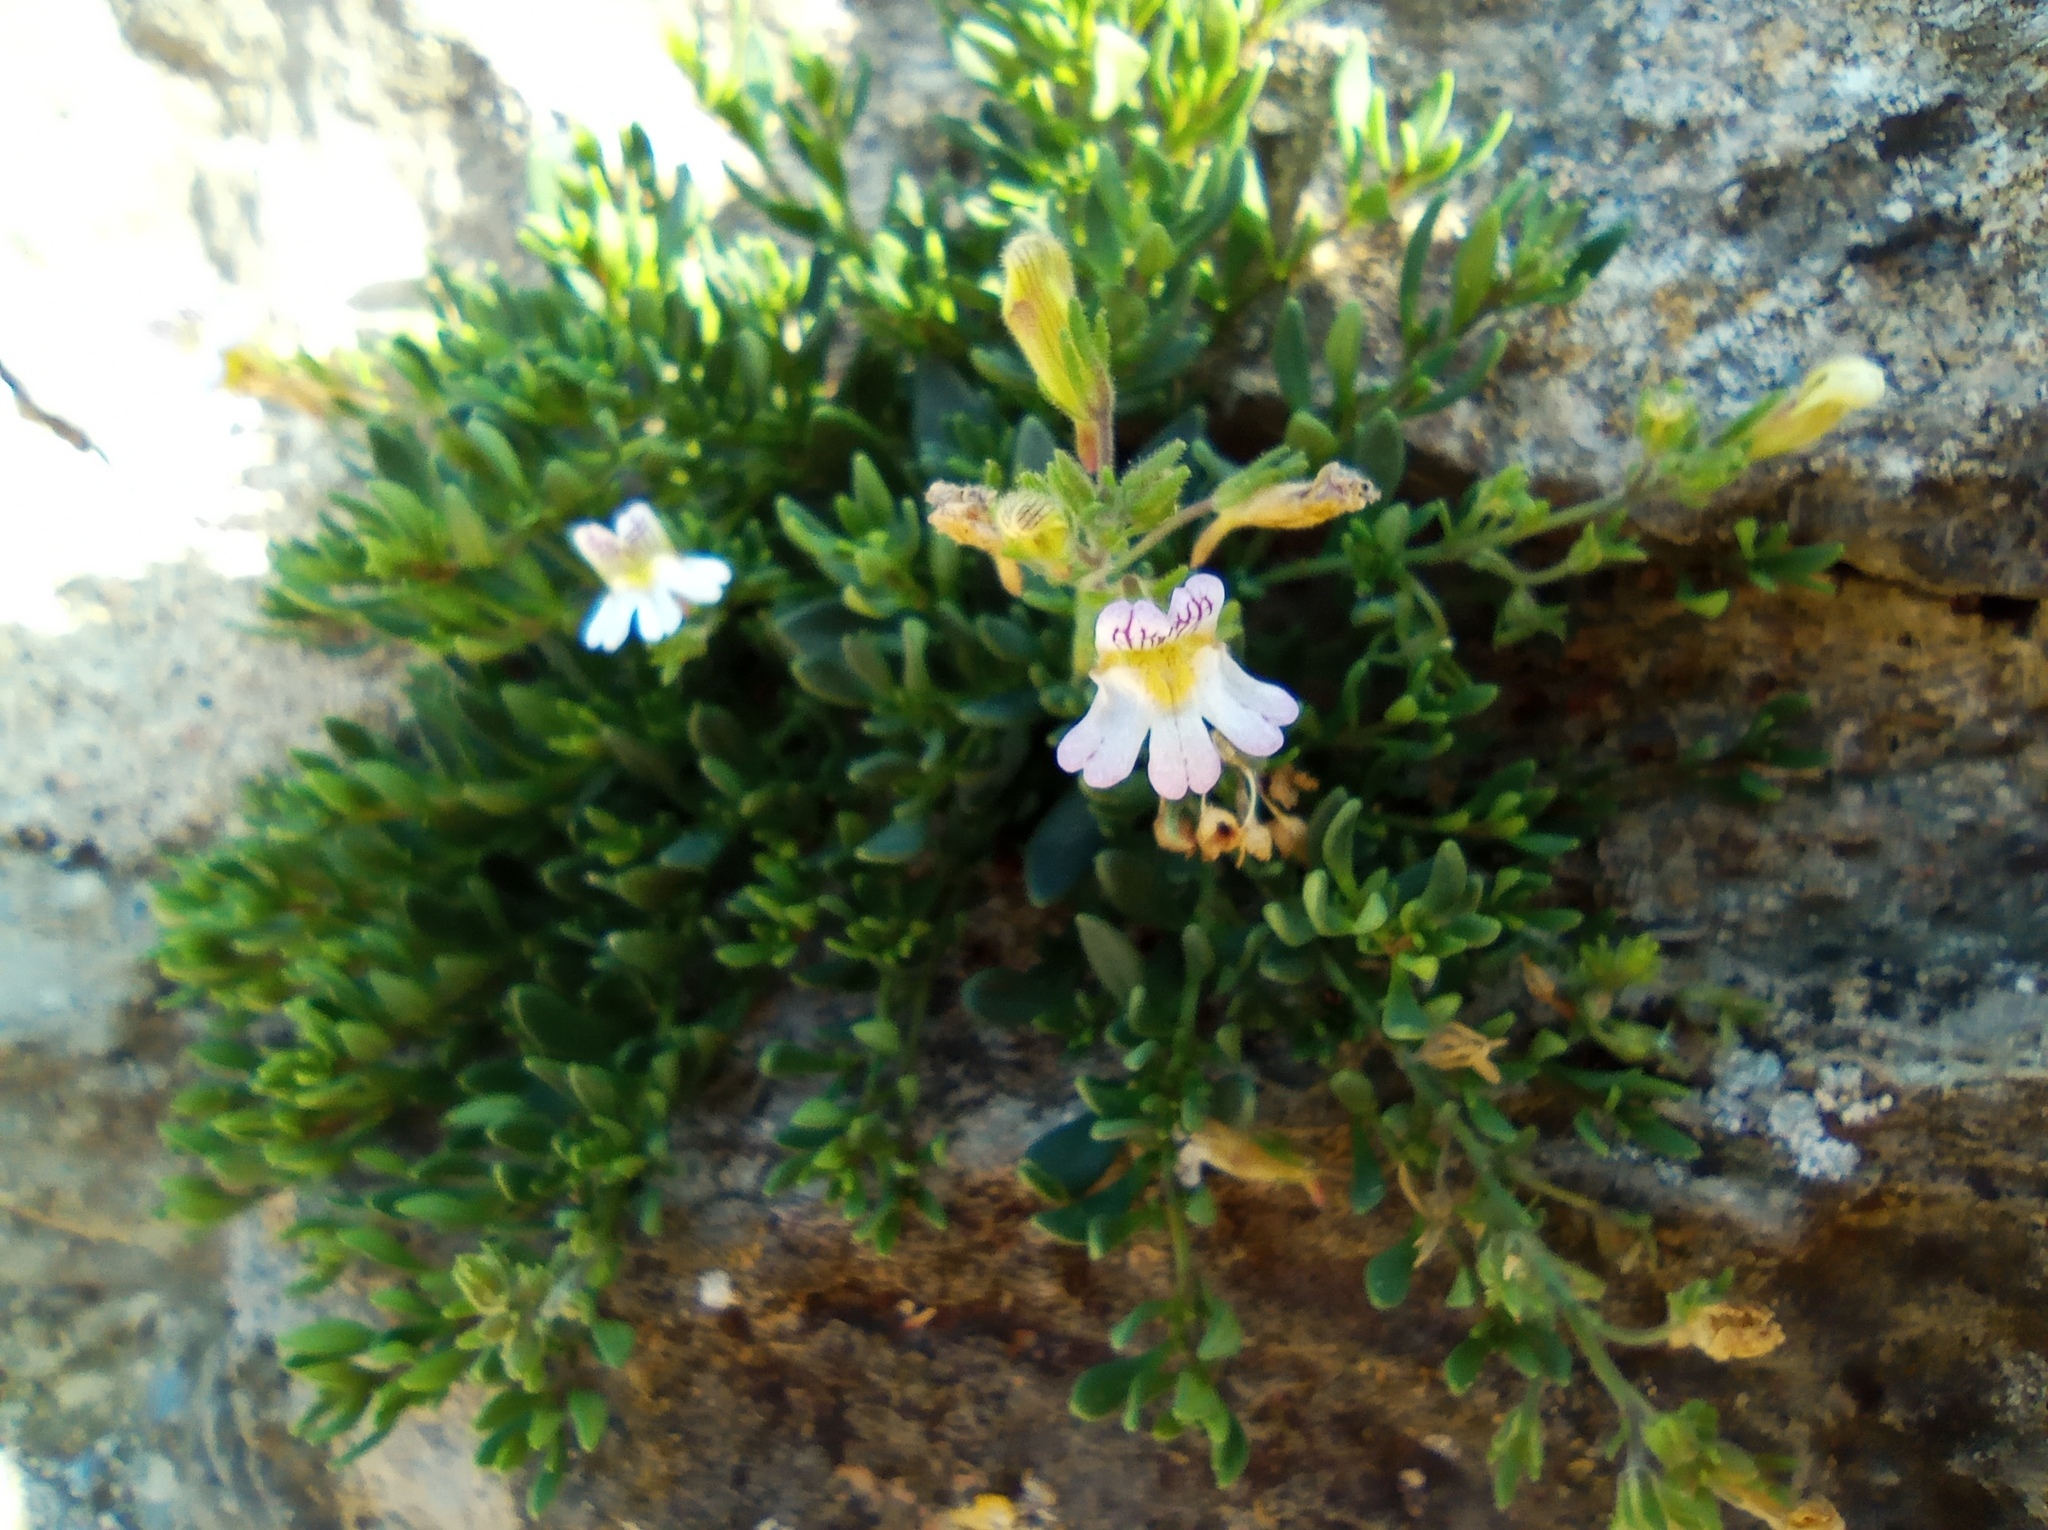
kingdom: Plantae
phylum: Tracheophyta
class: Magnoliopsida
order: Lamiales
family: Plantaginaceae
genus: Chaenorhinum
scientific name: Chaenorhinum origanifolium
